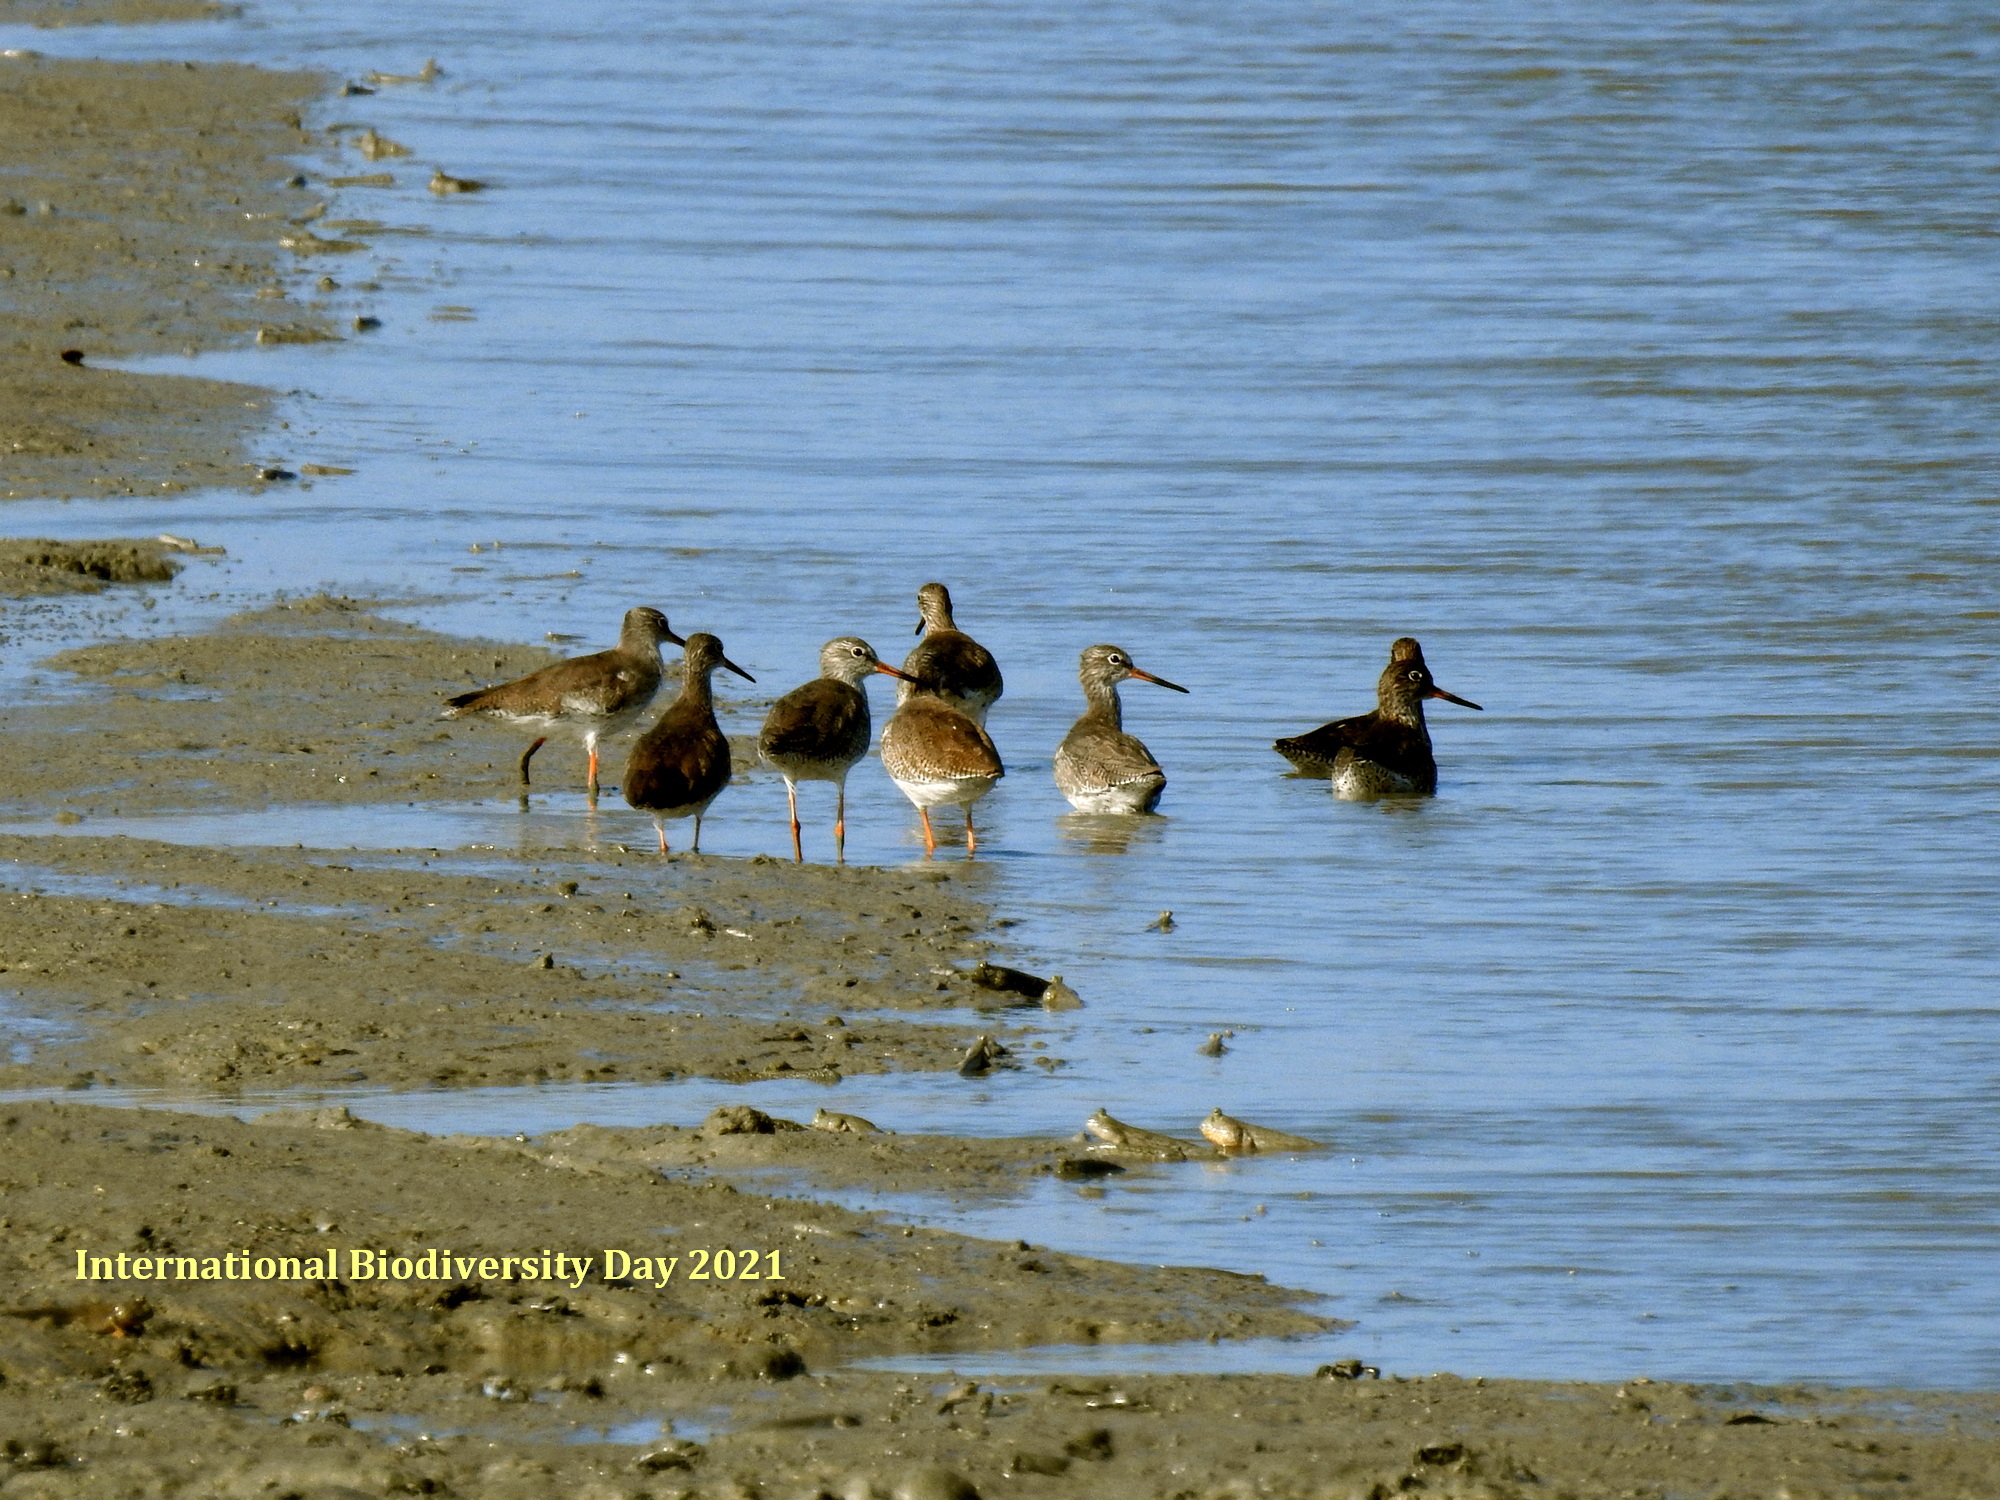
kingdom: Animalia
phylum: Chordata
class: Aves
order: Charadriiformes
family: Scolopacidae
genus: Tringa
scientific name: Tringa totanus
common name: Common redshank
